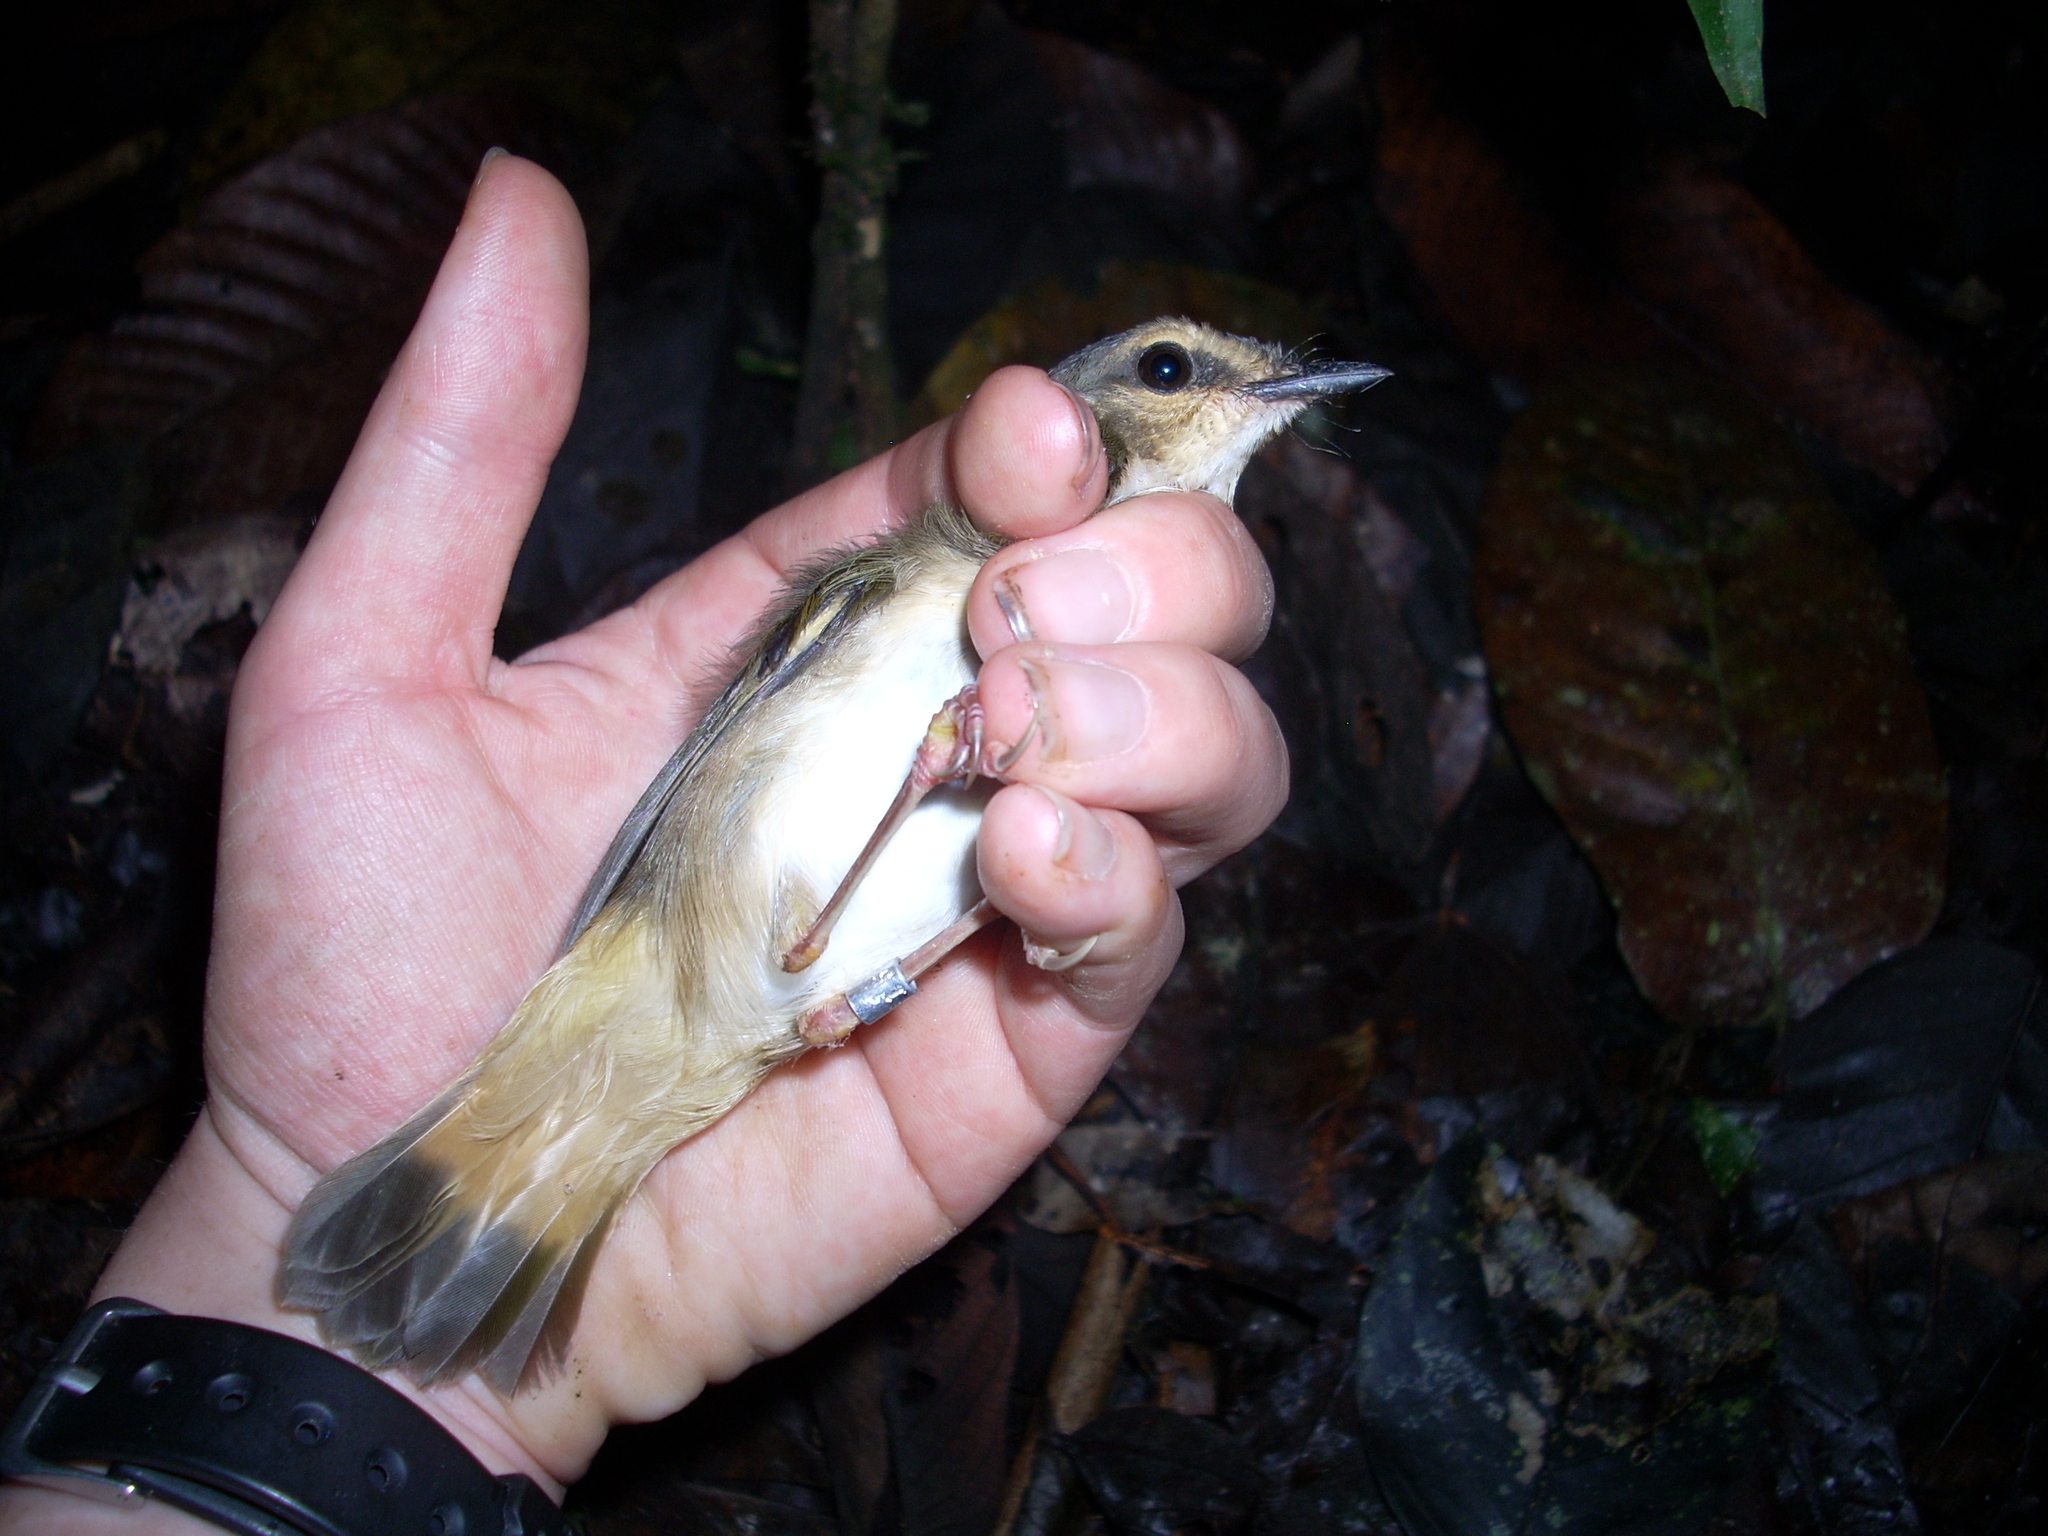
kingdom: Animalia
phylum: Chordata
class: Aves
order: Passeriformes
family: Parulidae
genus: Myiothlypis
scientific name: Myiothlypis fulvicauda
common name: Buff-rumped warbler
